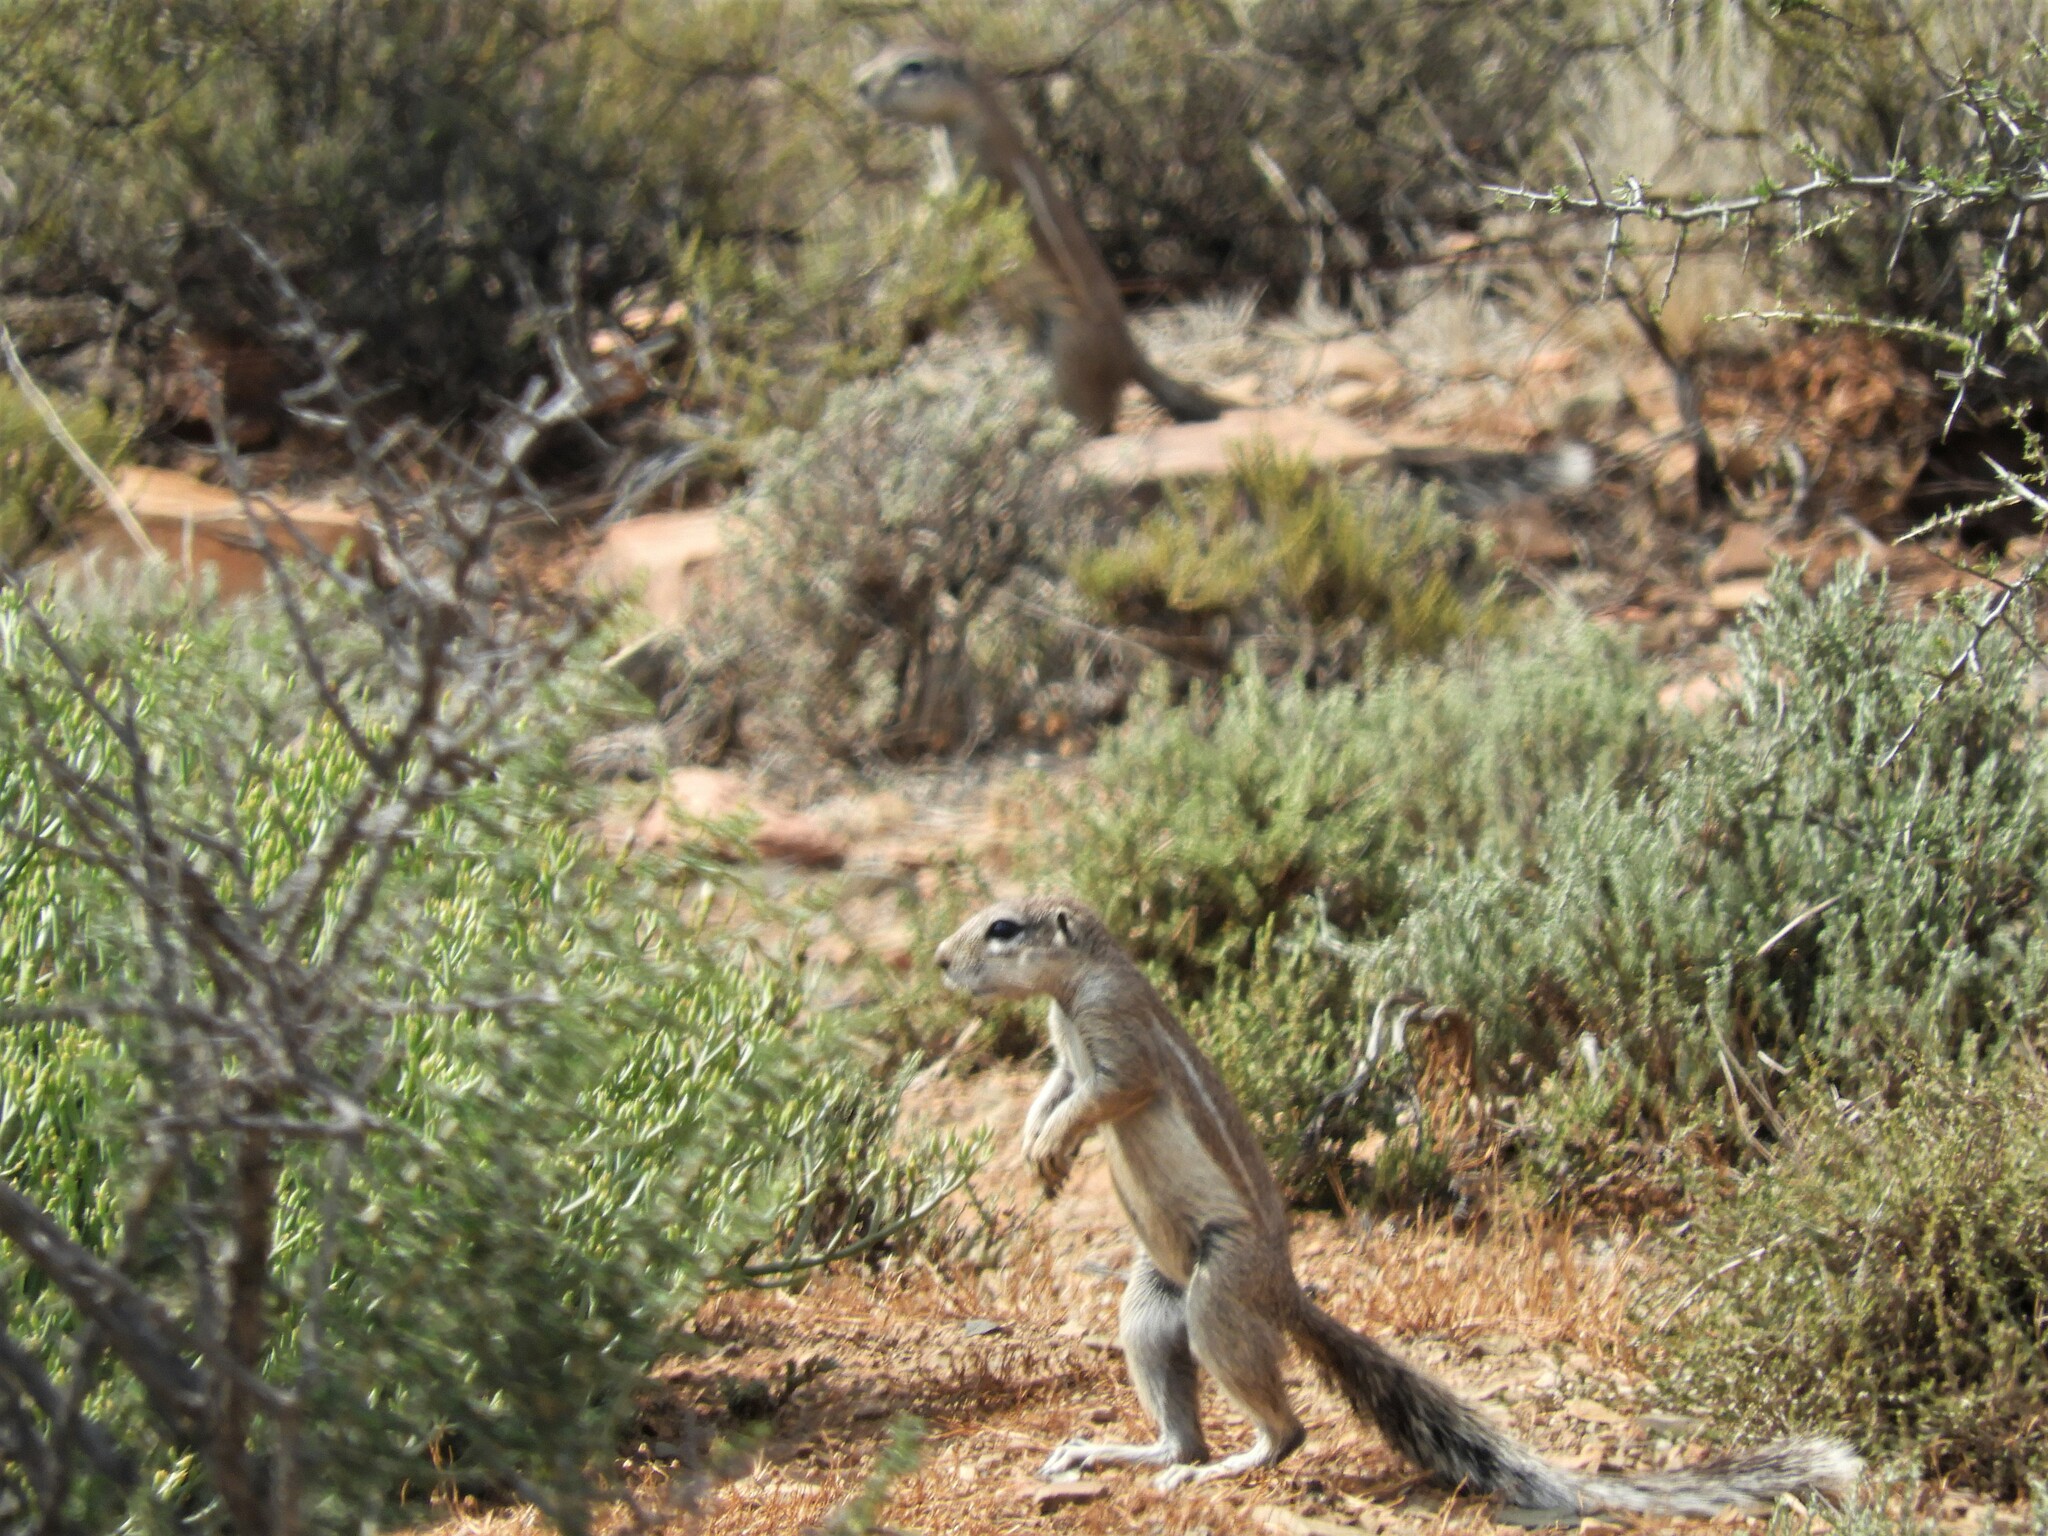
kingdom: Animalia
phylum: Chordata
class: Mammalia
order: Rodentia
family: Sciuridae
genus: Xerus
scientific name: Xerus inauris
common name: South african ground squirrel
